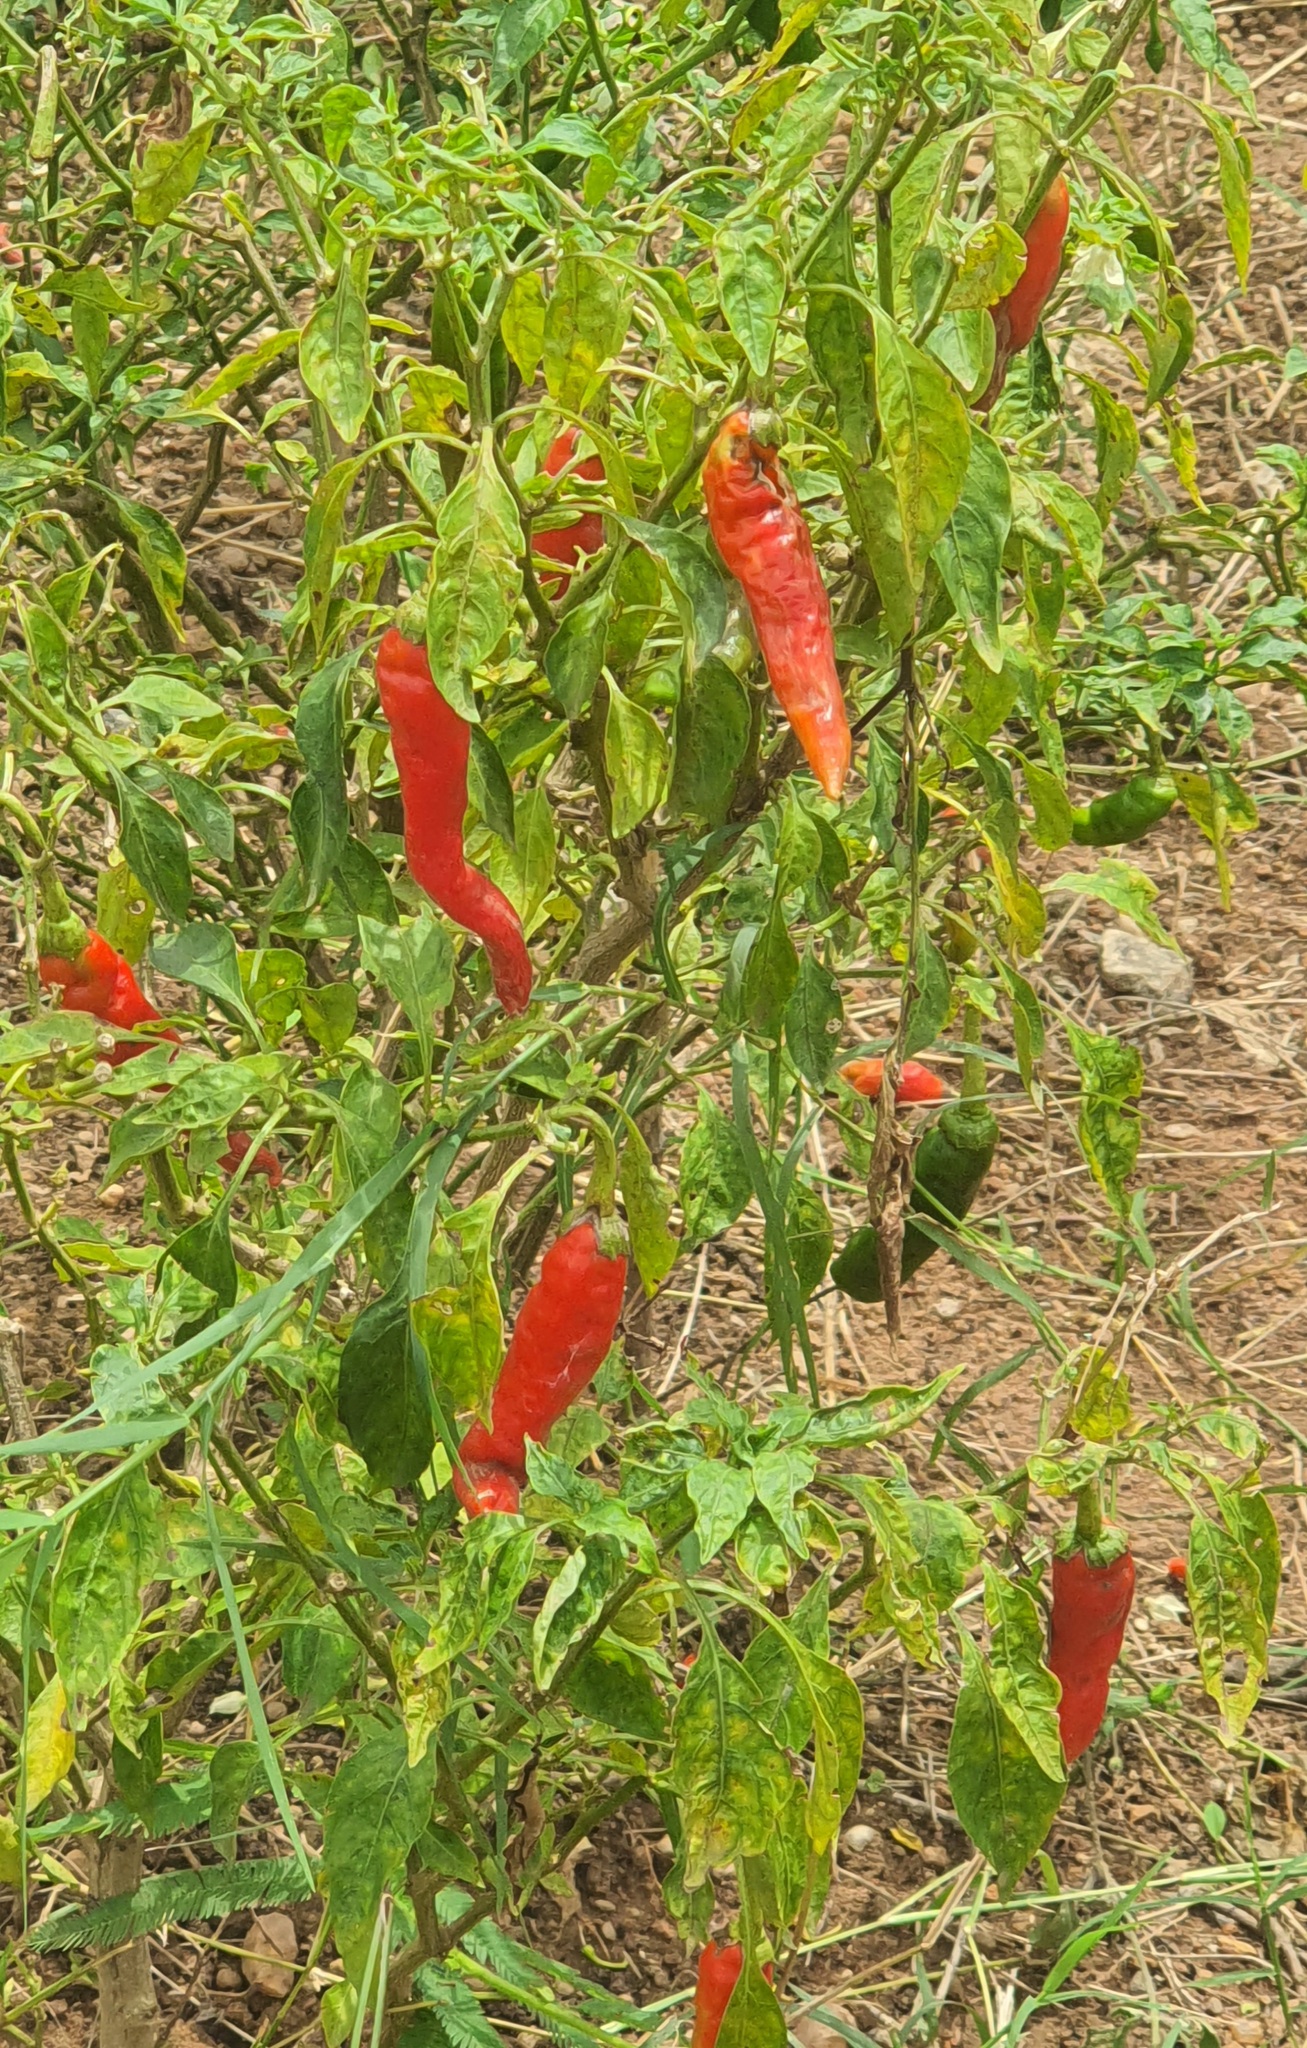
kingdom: Plantae
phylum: Tracheophyta
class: Magnoliopsida
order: Solanales
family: Solanaceae
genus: Capsicum
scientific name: Capsicum annuum
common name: Sweet pepper
